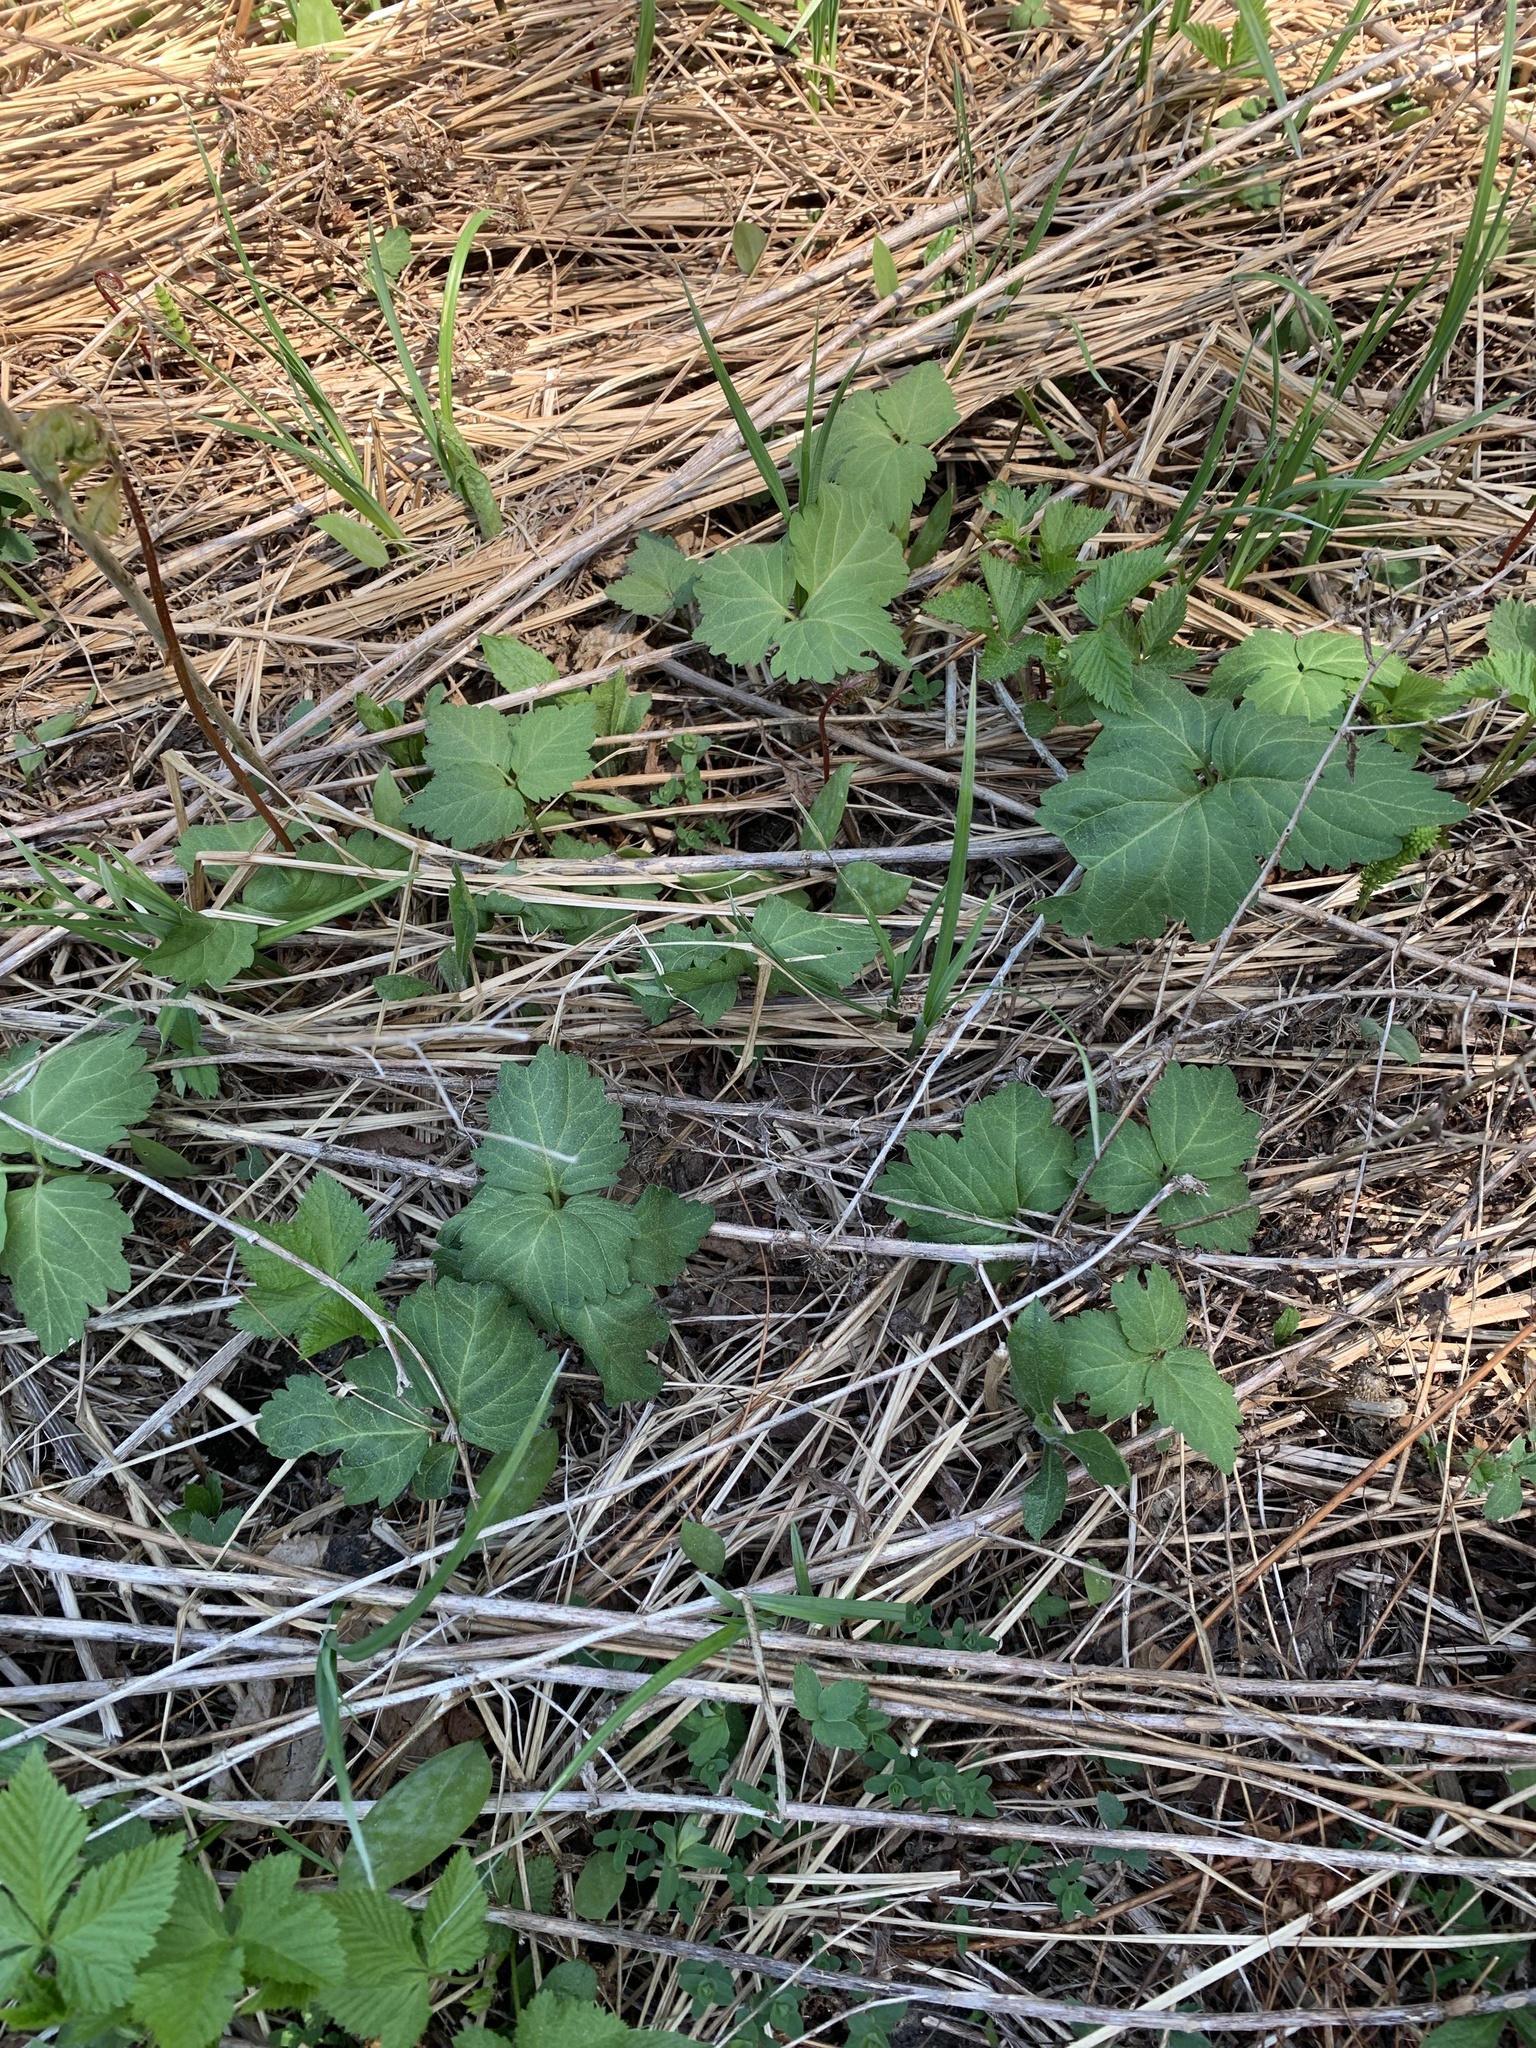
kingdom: Plantae
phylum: Tracheophyta
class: Magnoliopsida
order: Brassicales
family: Brassicaceae
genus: Cardamine
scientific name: Cardamine diphylla
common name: Broad-leaved toothwort
